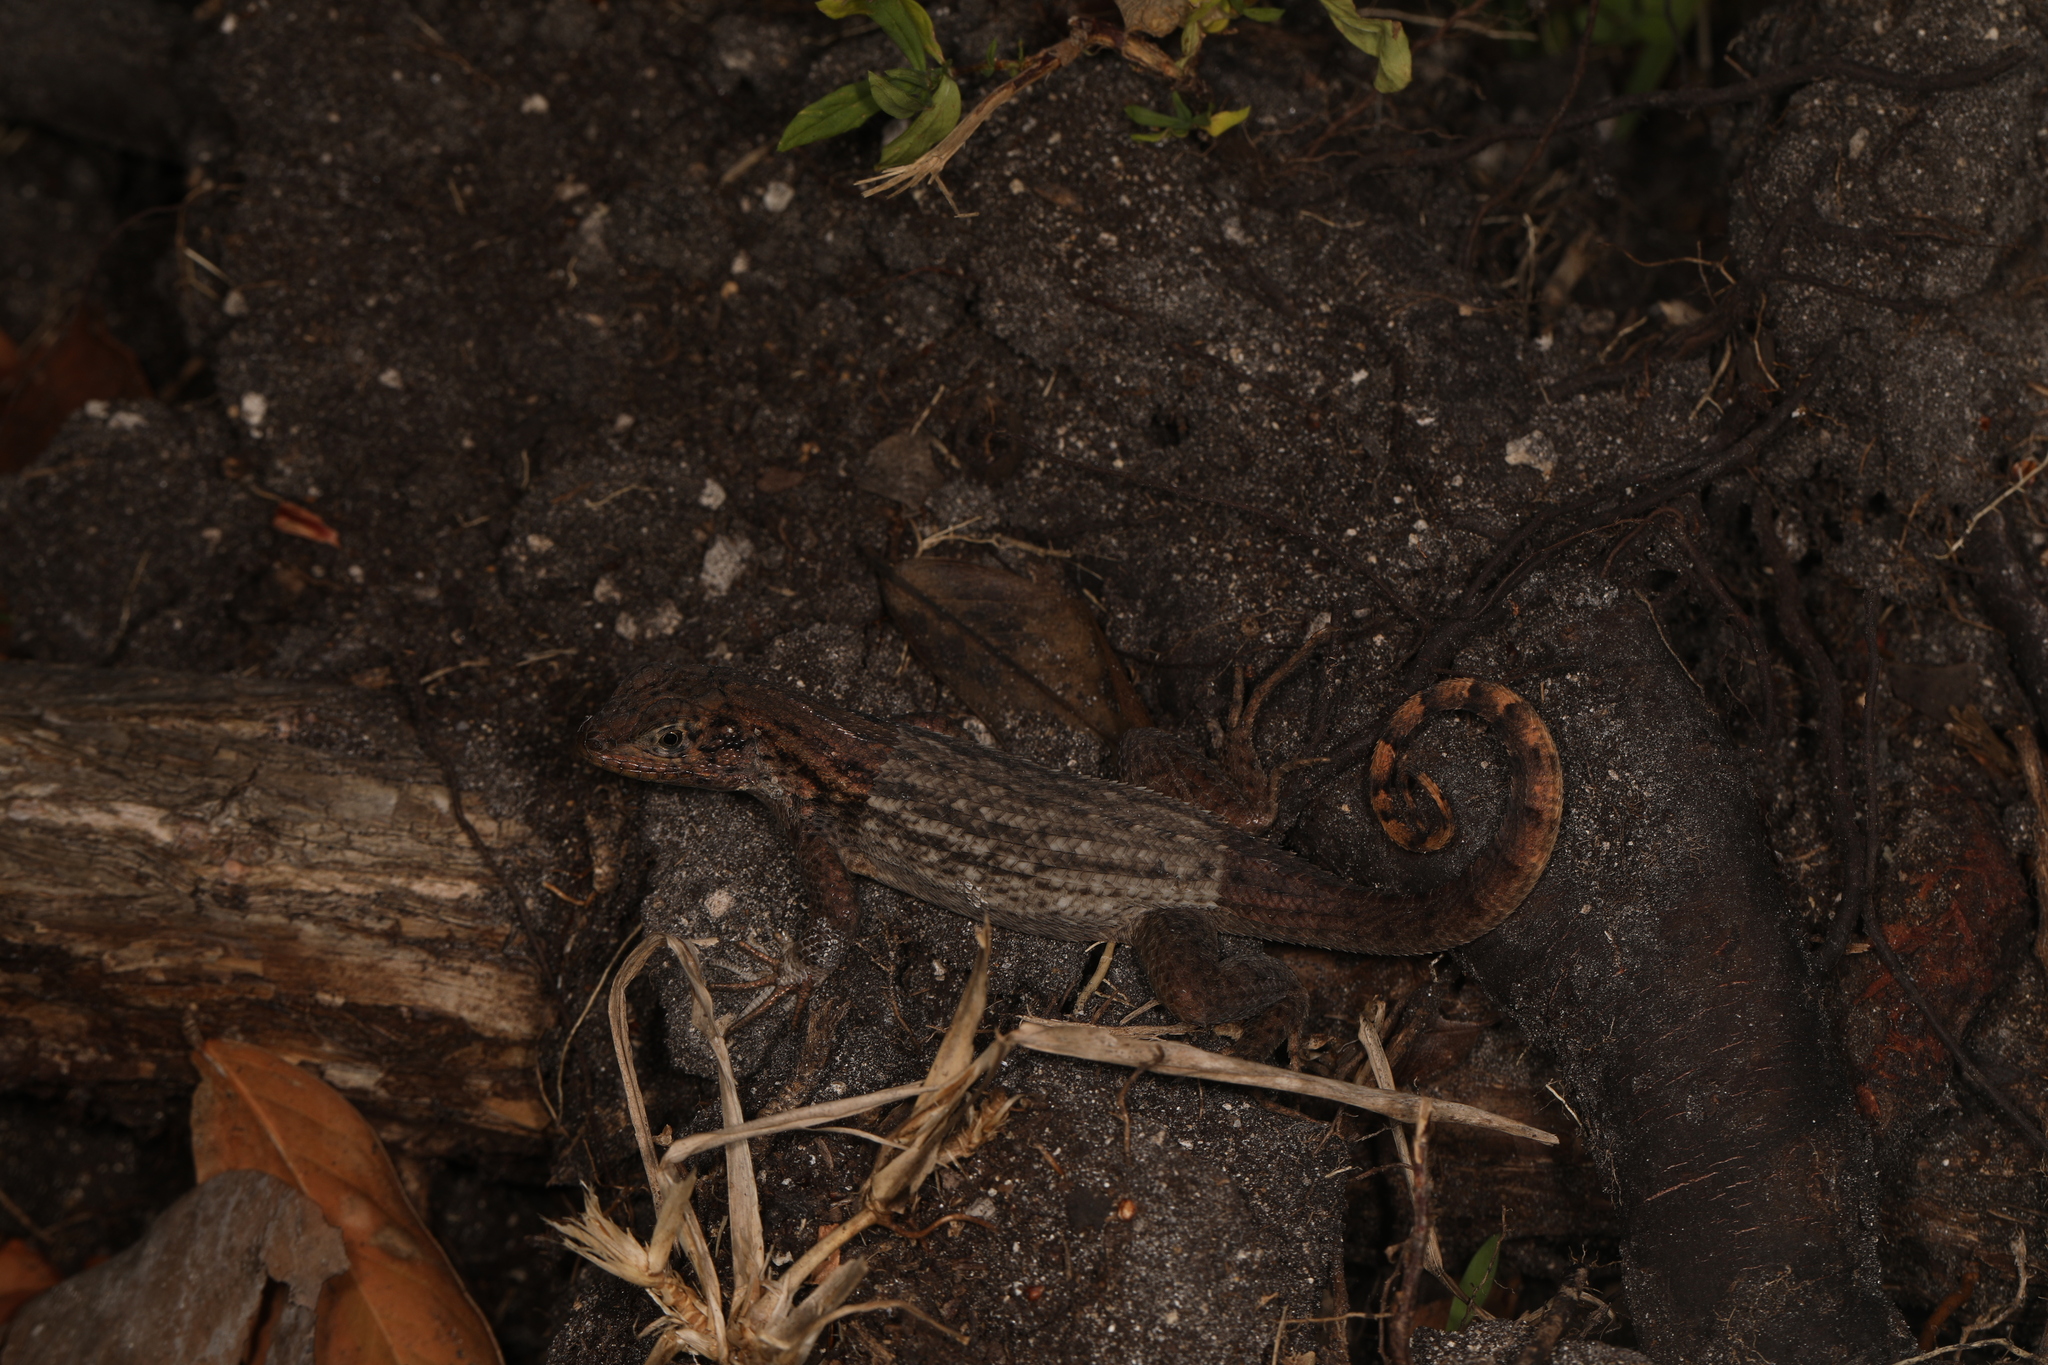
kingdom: Animalia
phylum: Chordata
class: Squamata
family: Leiocephalidae
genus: Leiocephalus
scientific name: Leiocephalus carinatus
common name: Northern curly-tailed lizard
